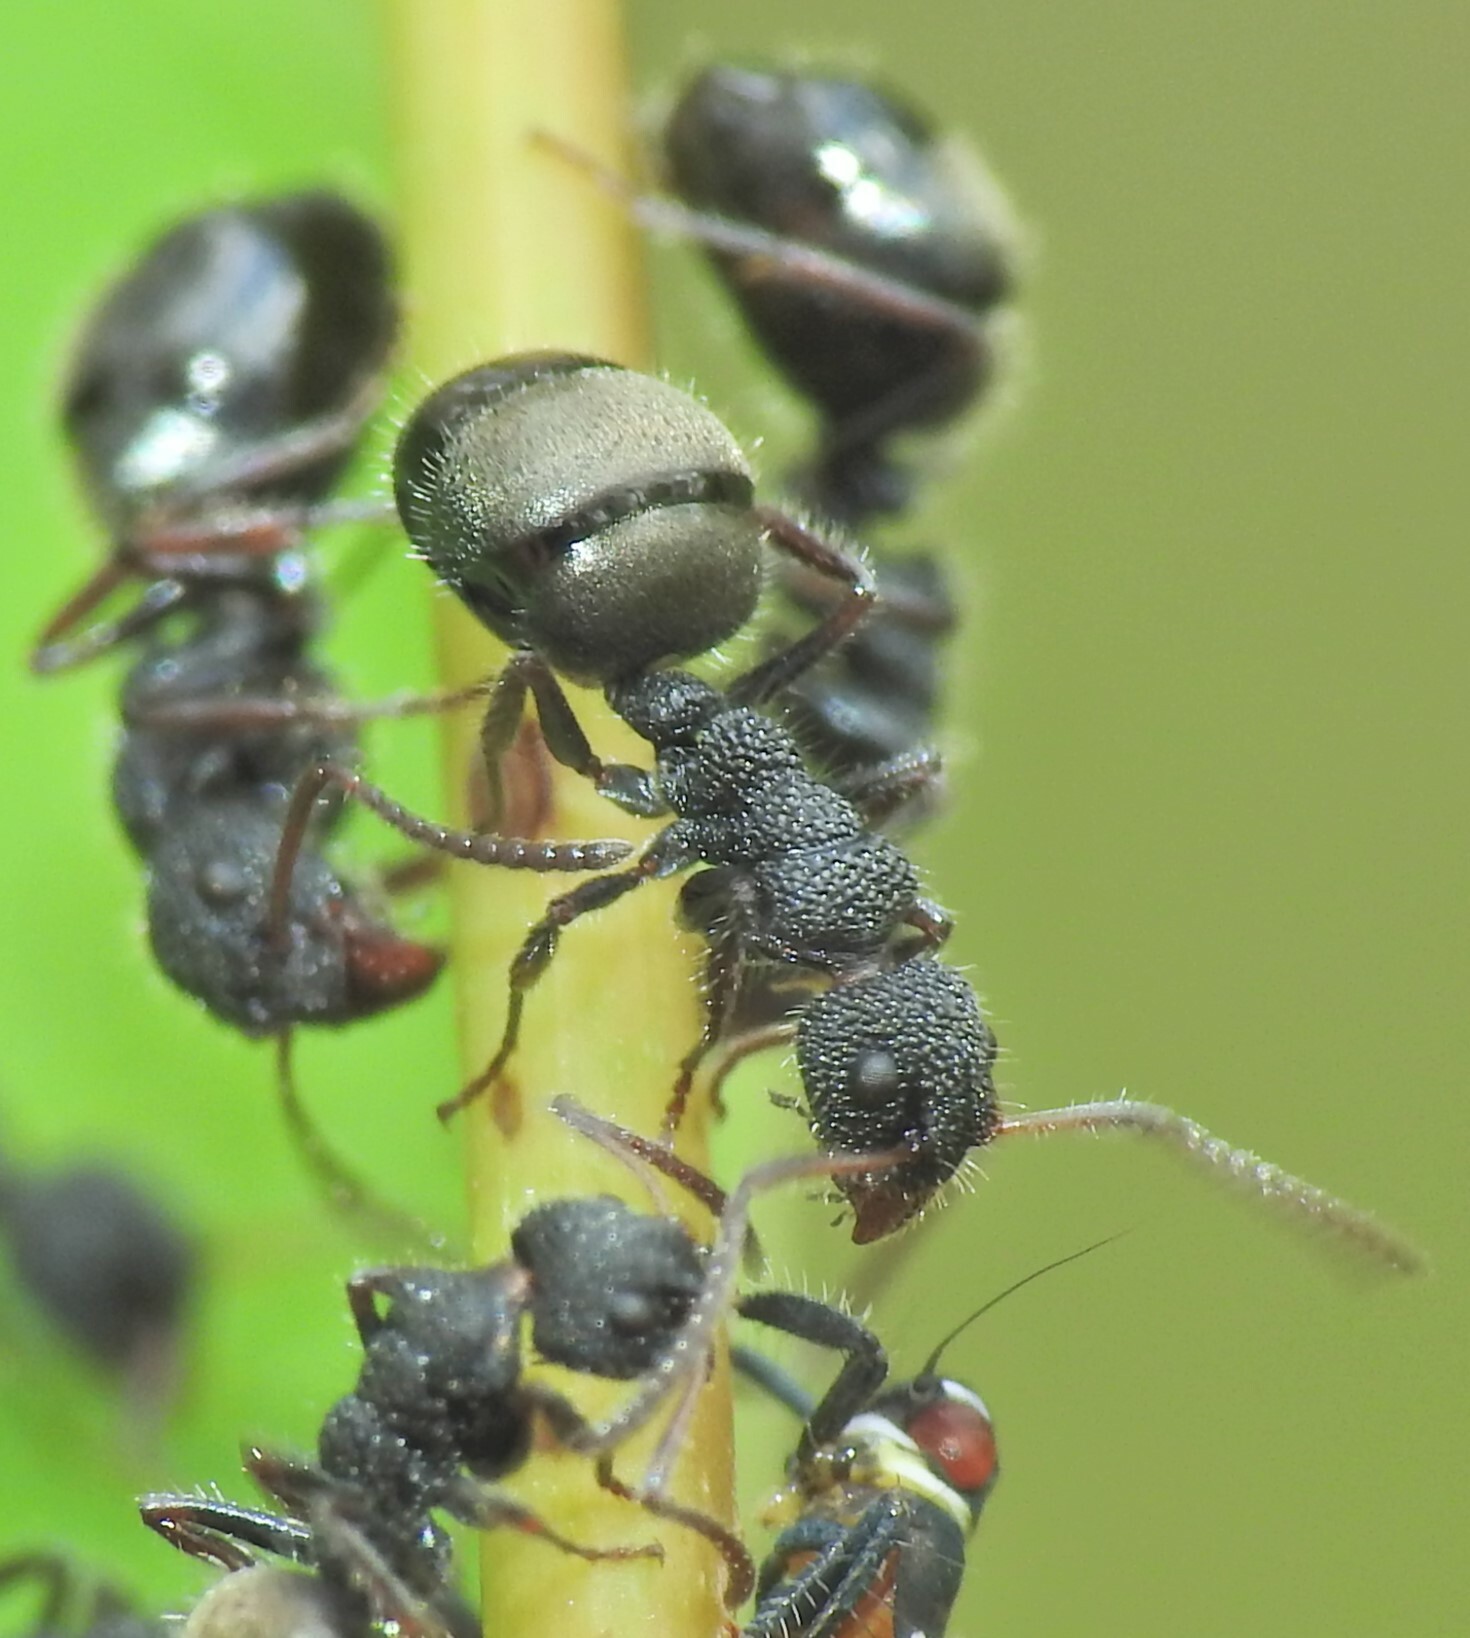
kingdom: Animalia
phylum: Arthropoda
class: Insecta
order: Hymenoptera
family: Formicidae
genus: Dolichoderus
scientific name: Dolichoderus scrobiculatus
